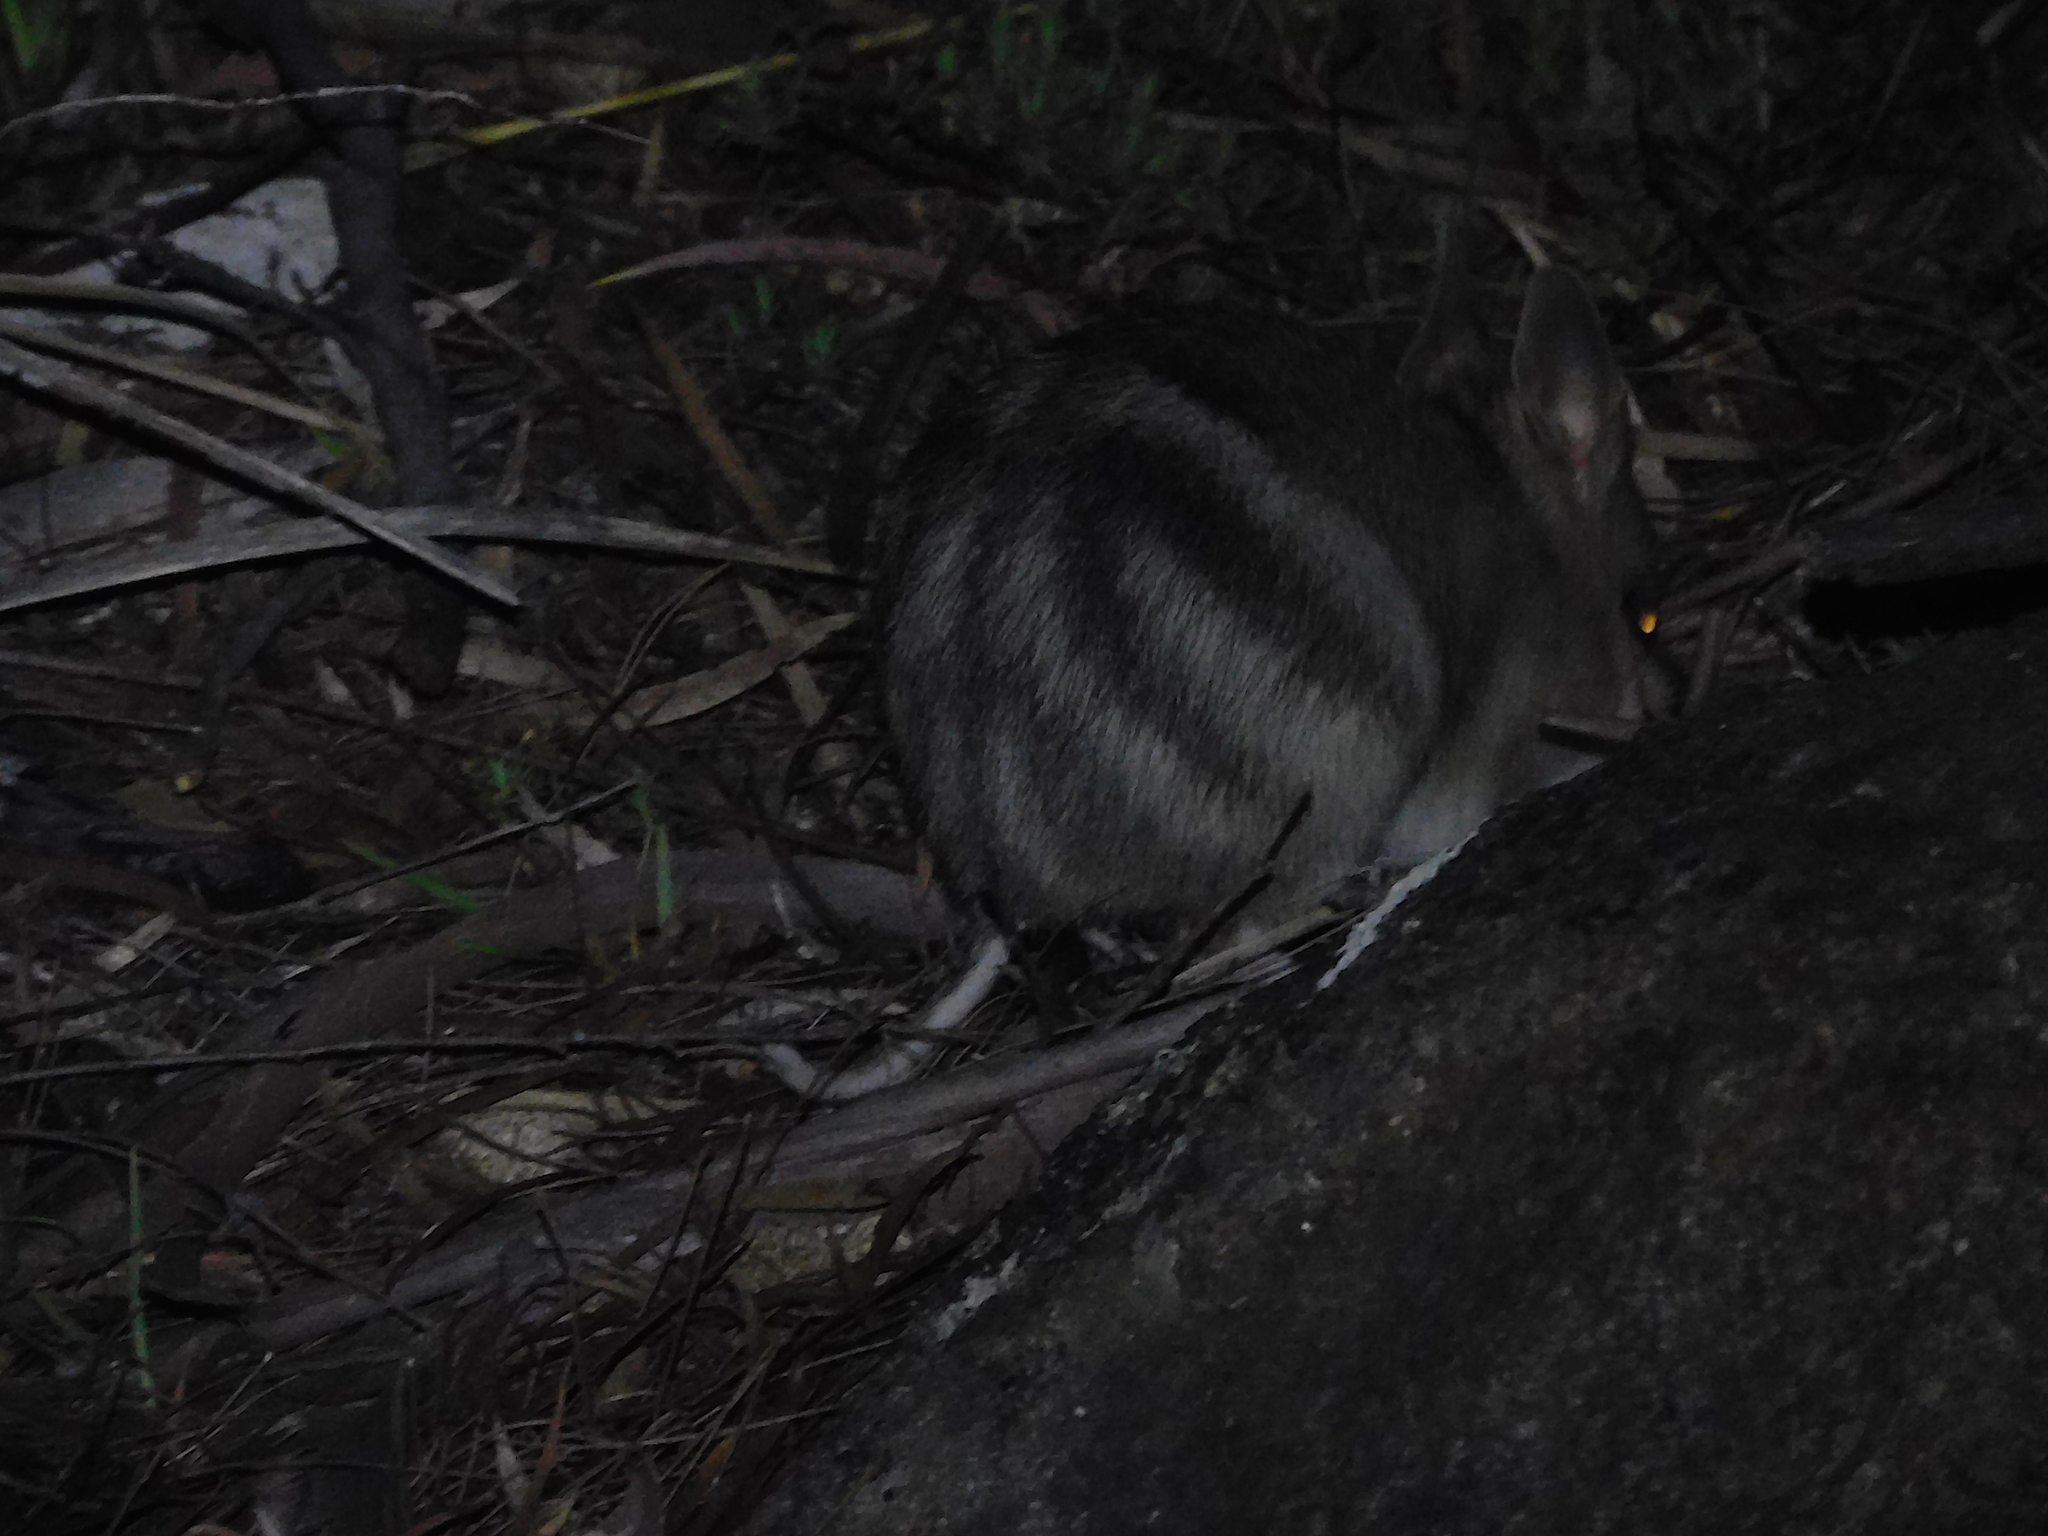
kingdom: Animalia
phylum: Chordata
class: Mammalia
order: Peramelemorphia
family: Peramelidae
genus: Perameles
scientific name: Perameles gunnii
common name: Eastern barred bandicoot
